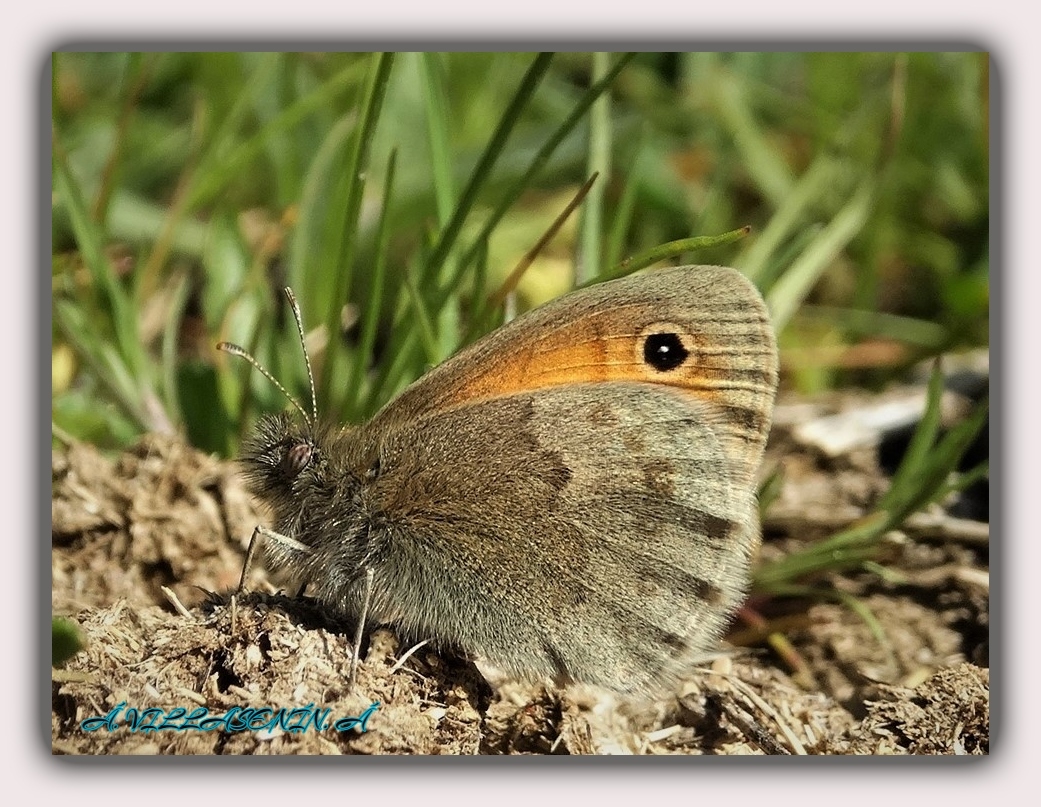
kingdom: Animalia
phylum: Arthropoda
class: Insecta
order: Lepidoptera
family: Nymphalidae
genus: Coenonympha
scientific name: Coenonympha pamphilus
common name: Small heath
